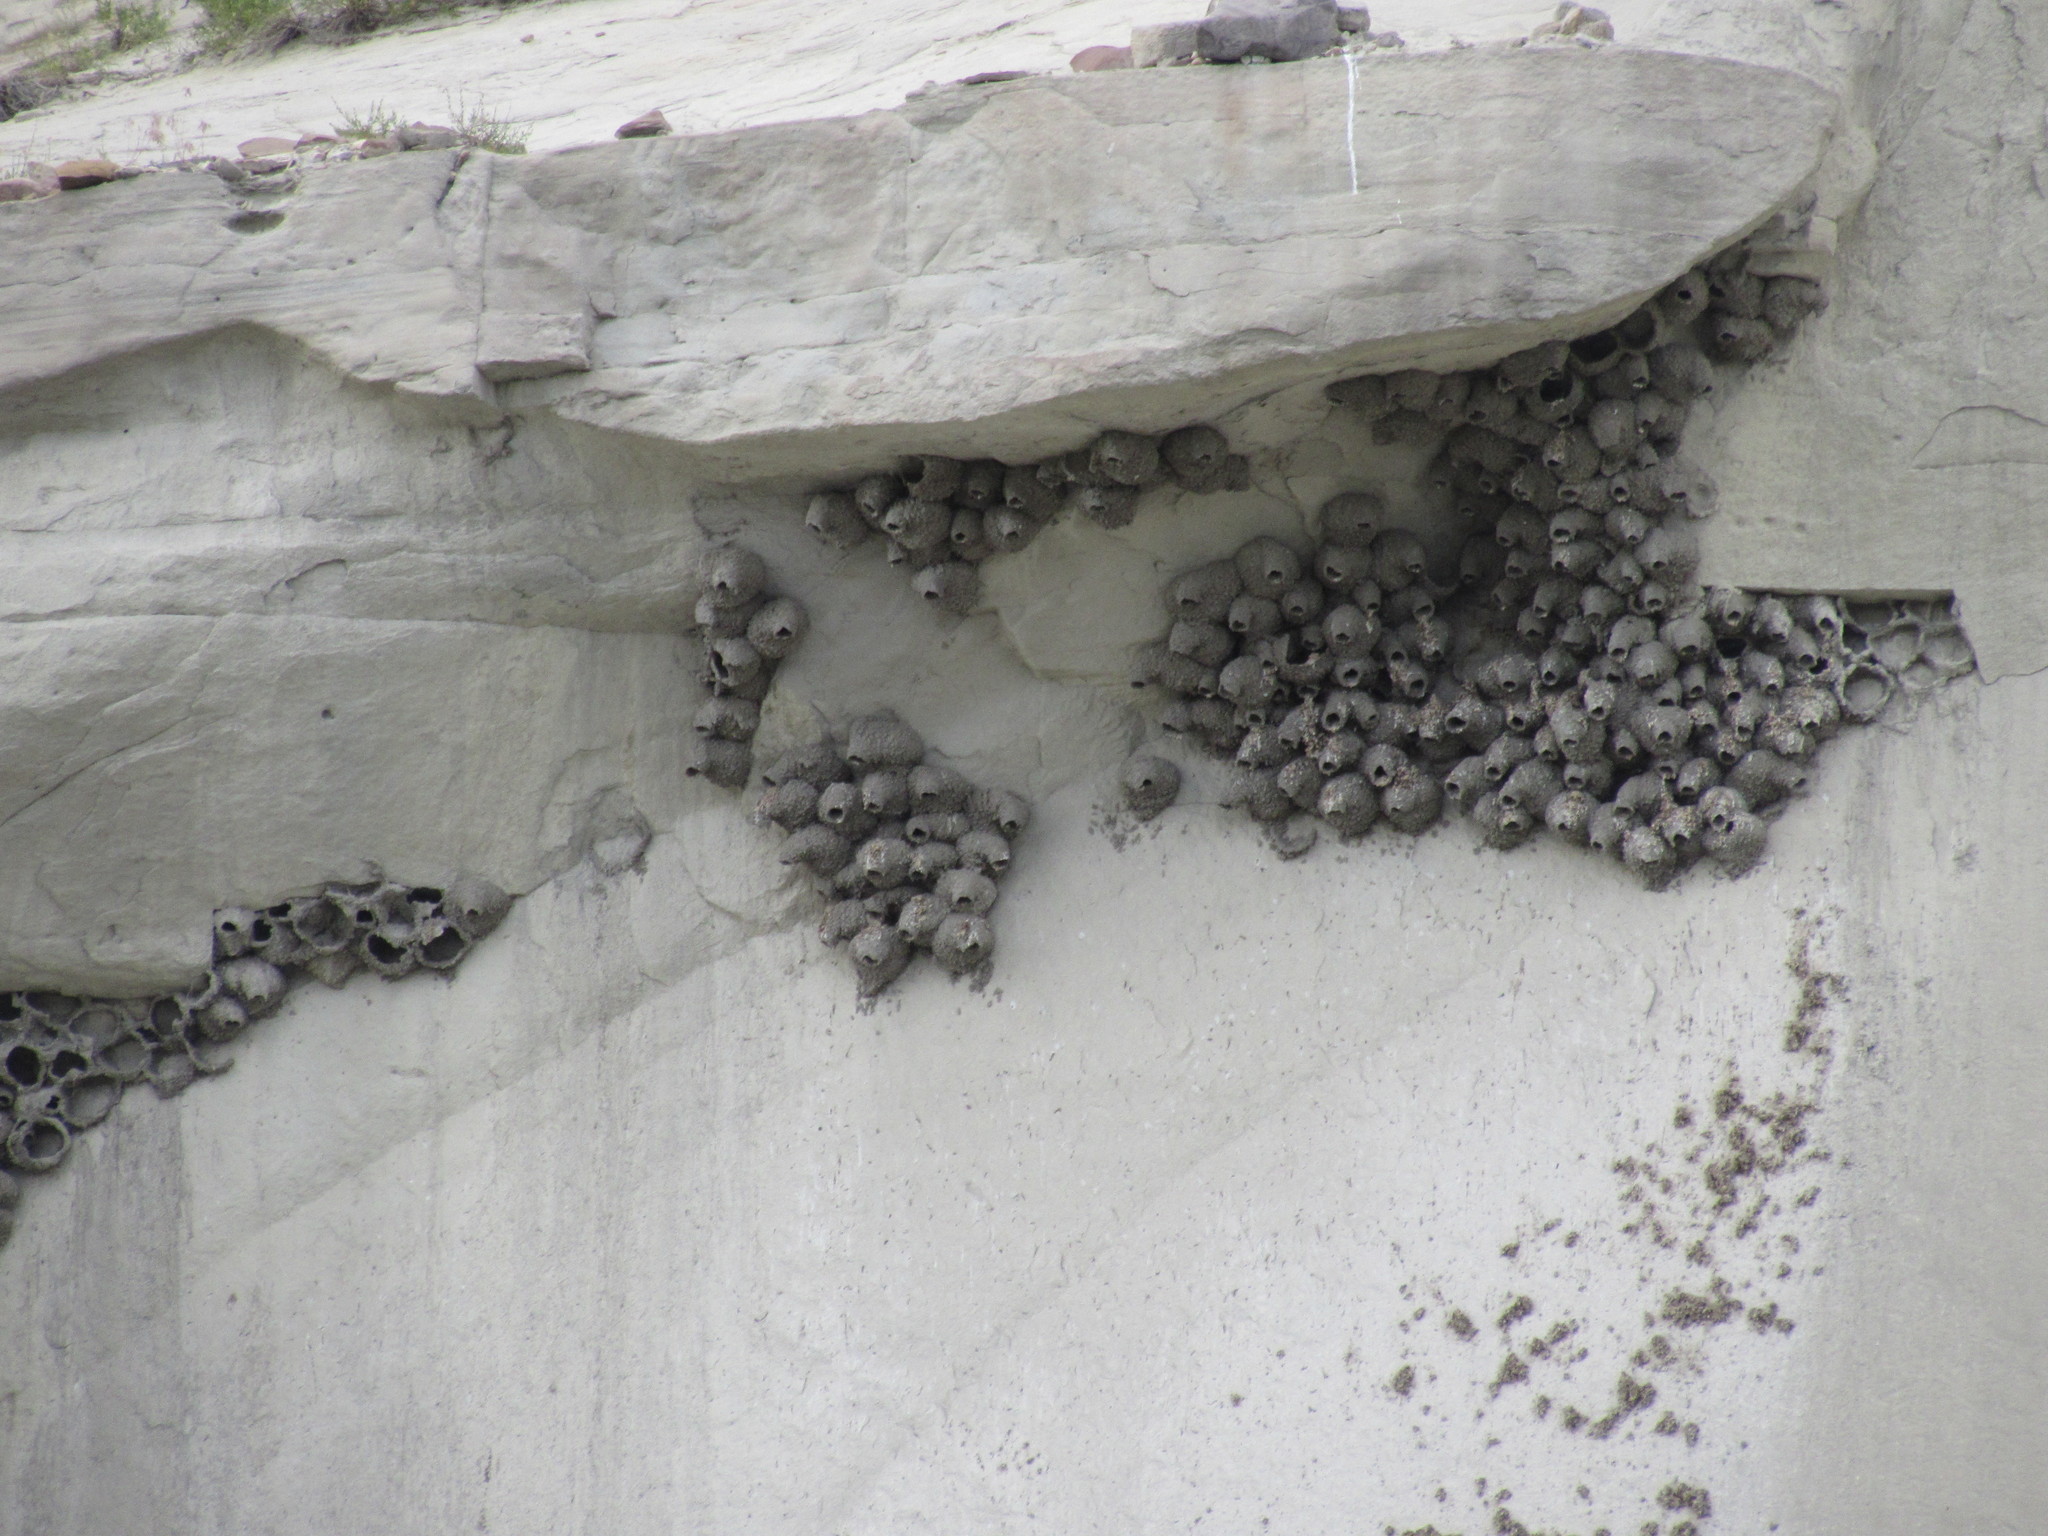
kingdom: Animalia
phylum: Chordata
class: Aves
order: Passeriformes
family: Hirundinidae
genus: Petrochelidon
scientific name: Petrochelidon pyrrhonota
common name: American cliff swallow
